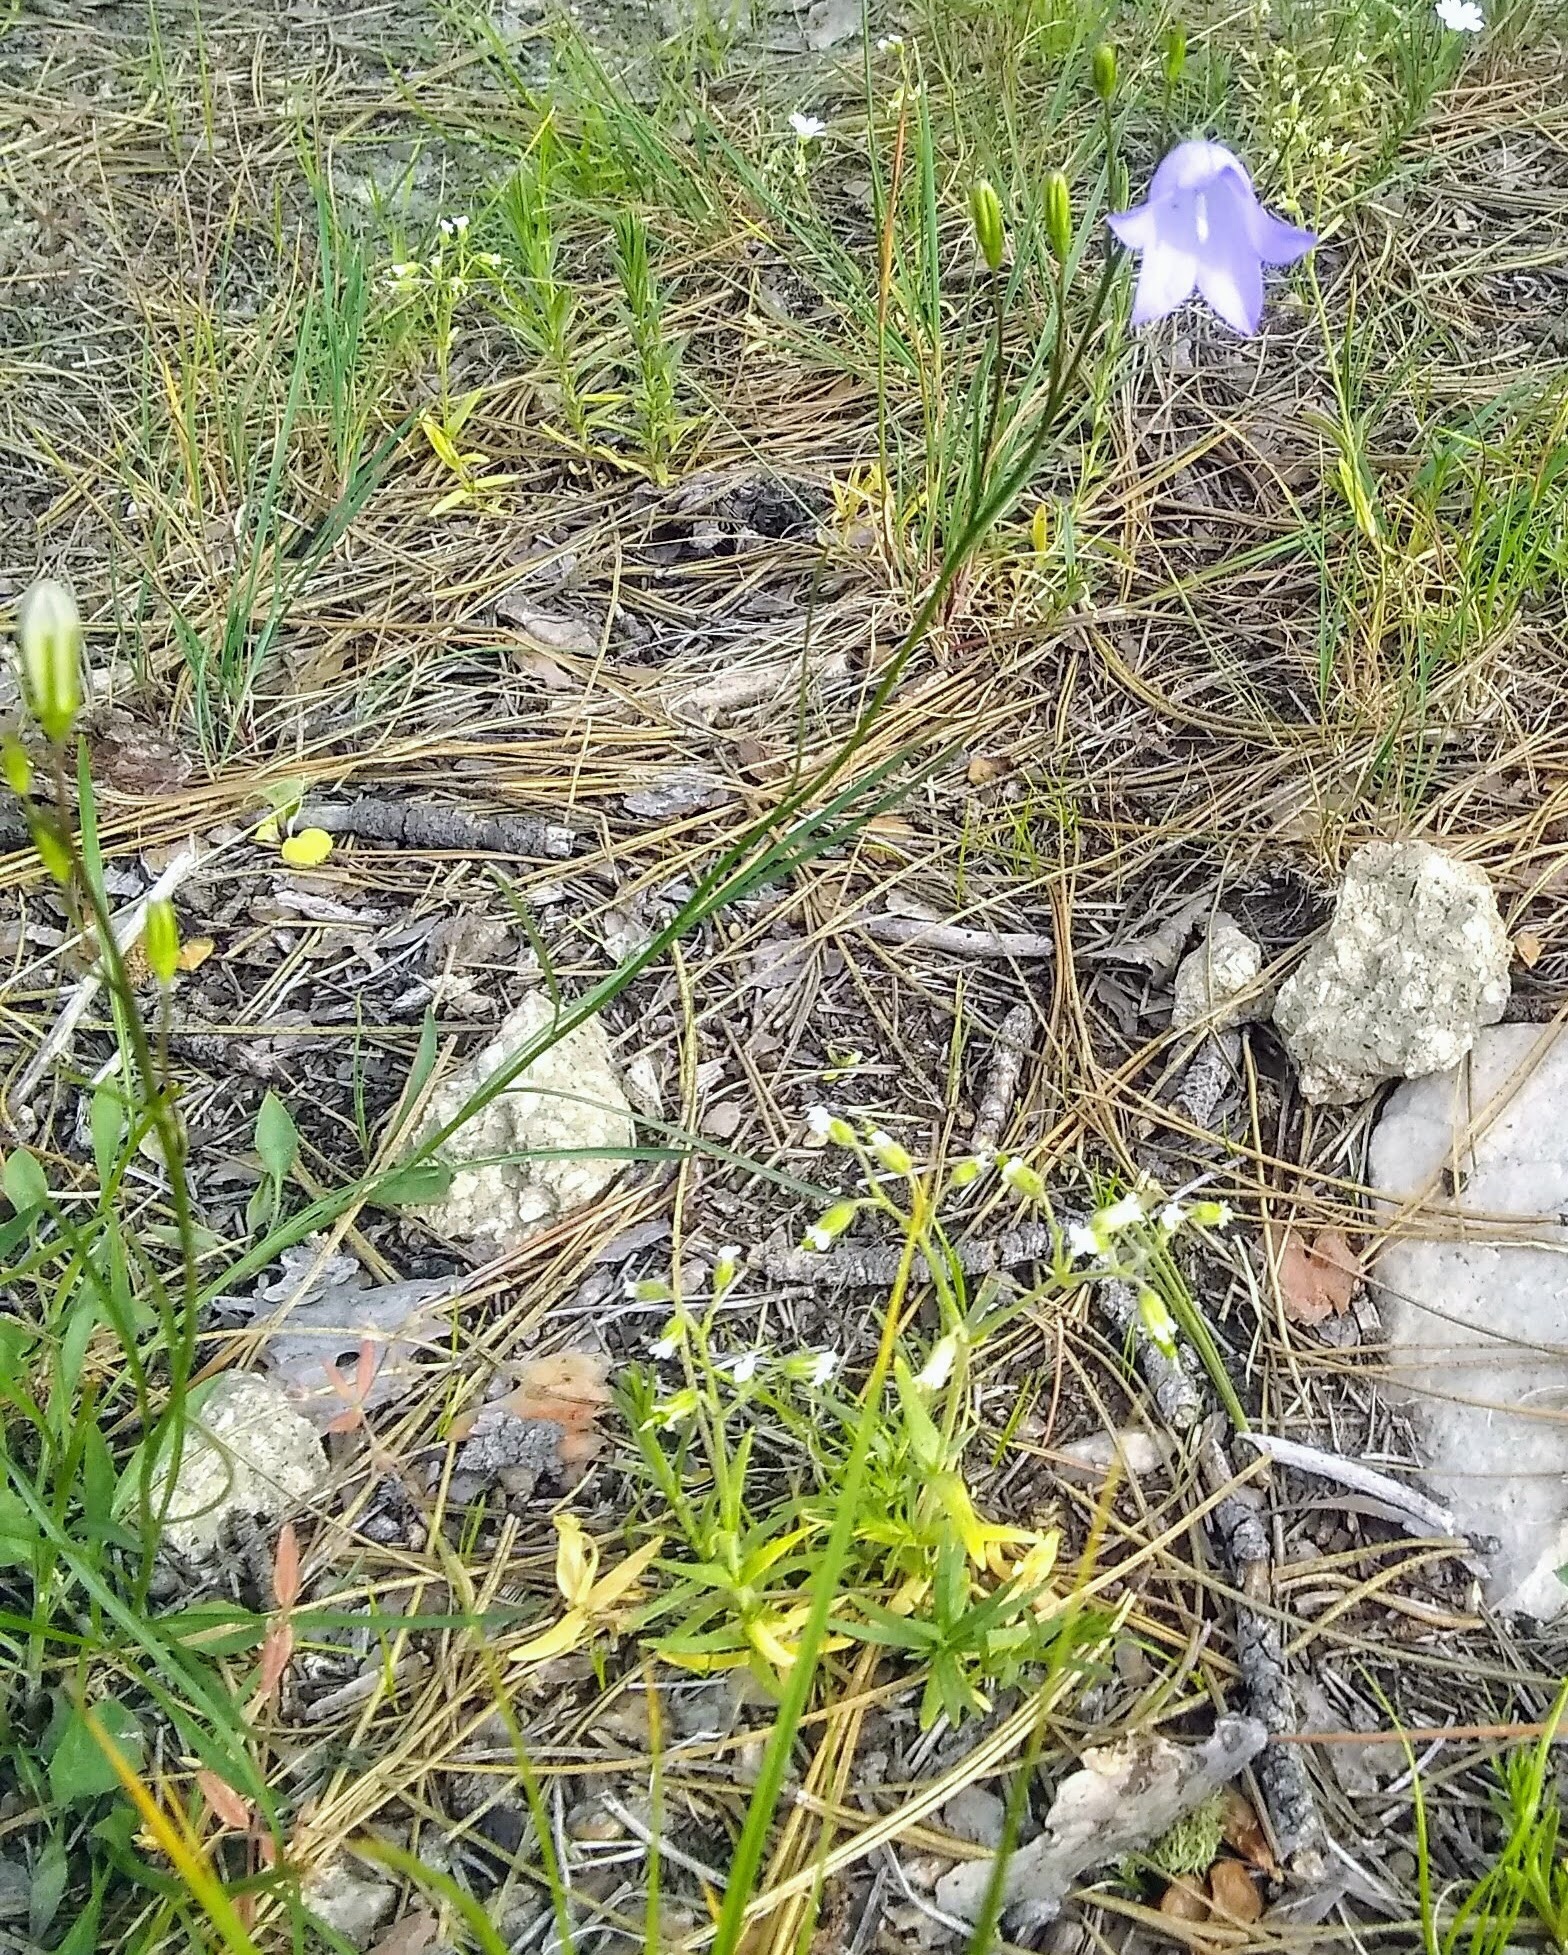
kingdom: Plantae
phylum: Tracheophyta
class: Magnoliopsida
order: Asterales
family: Campanulaceae
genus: Campanula
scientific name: Campanula petiolata
